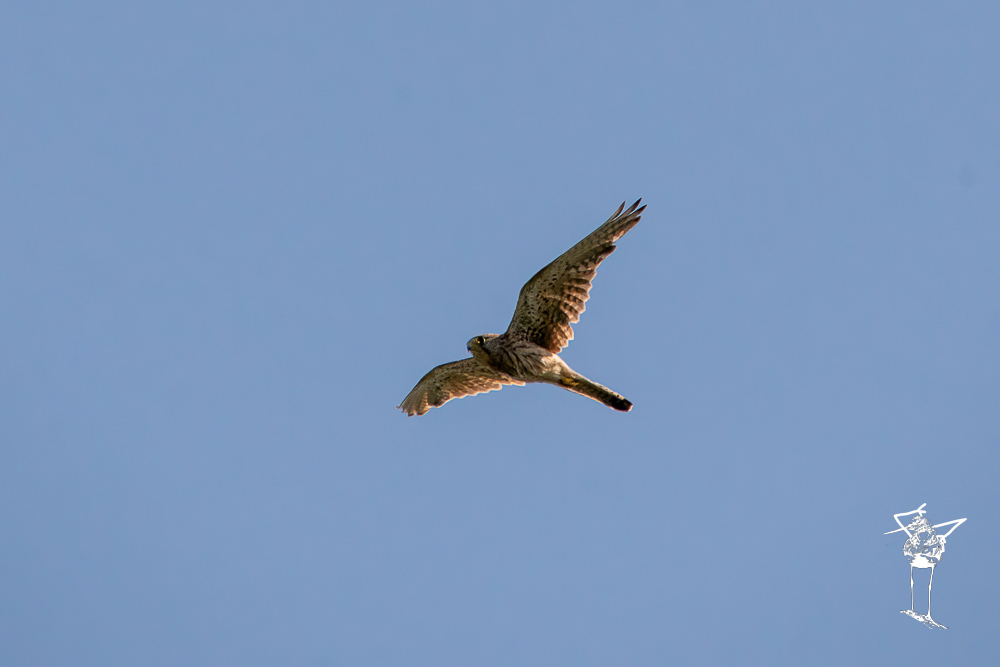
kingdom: Animalia
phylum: Chordata
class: Aves
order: Falconiformes
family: Falconidae
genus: Falco
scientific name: Falco tinnunculus
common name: Common kestrel
